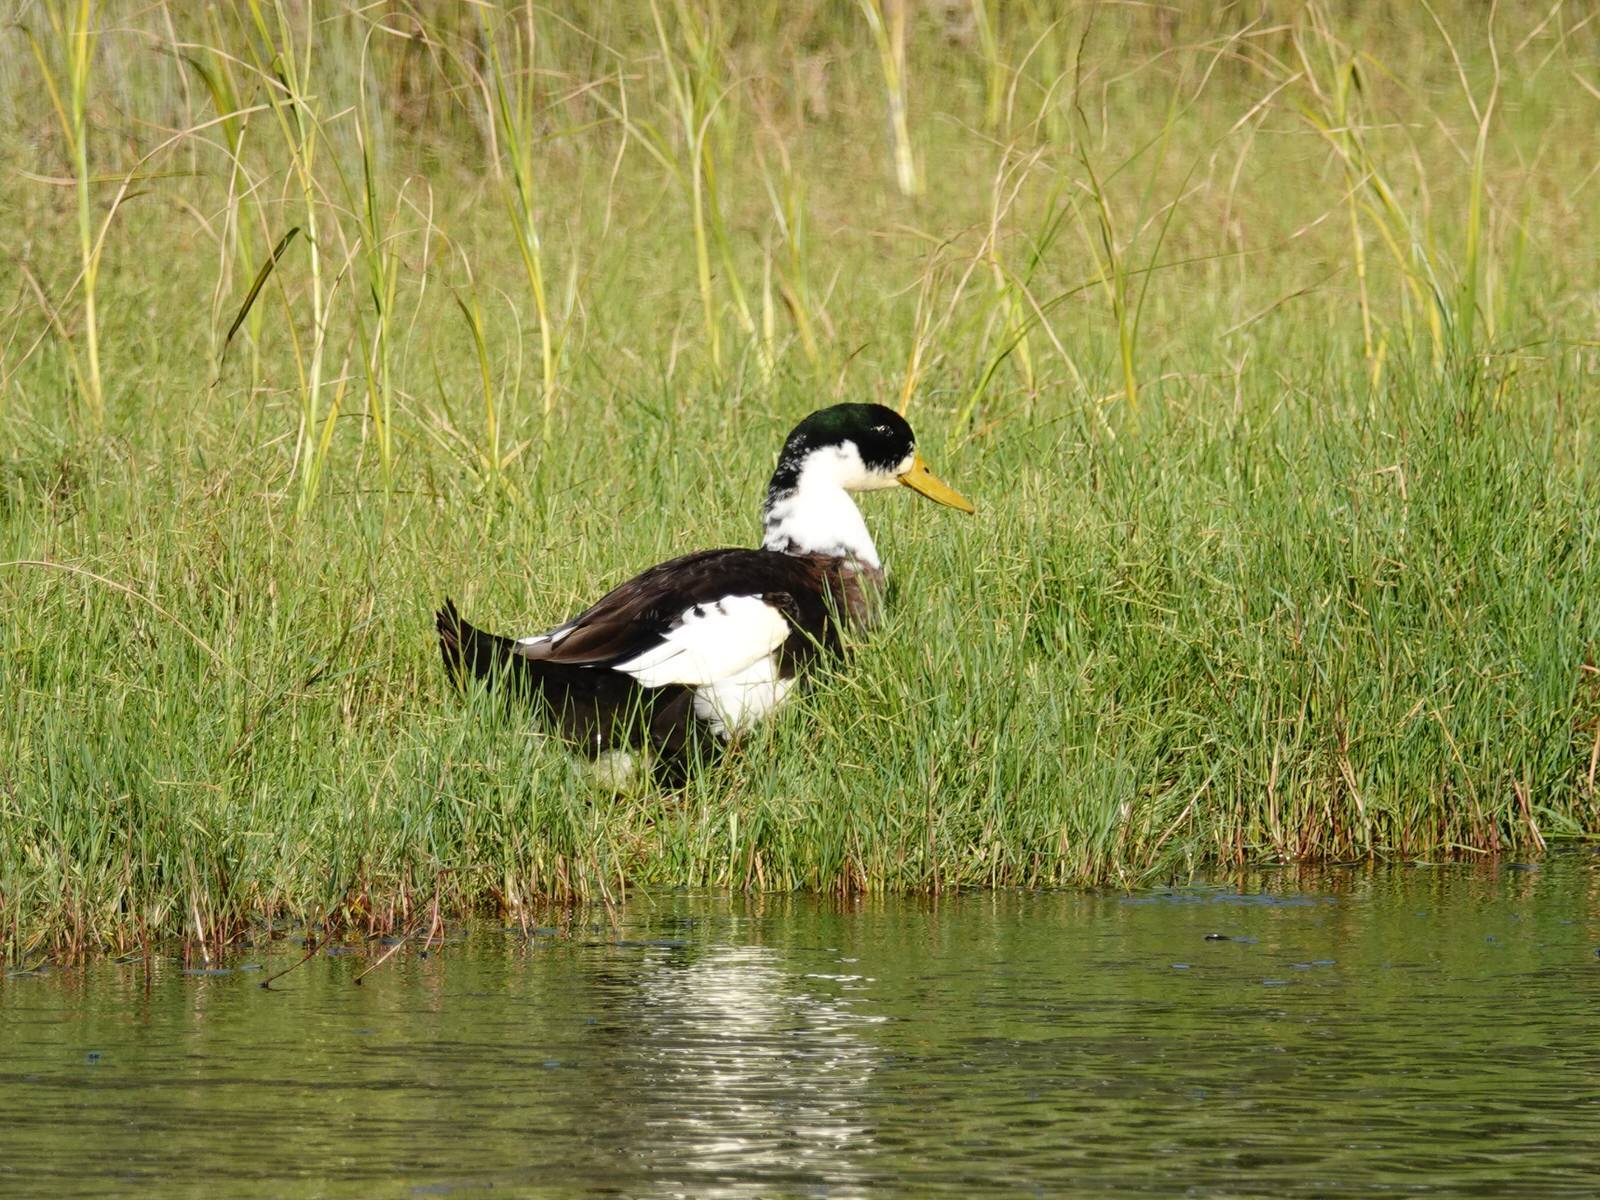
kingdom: Animalia
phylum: Chordata
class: Aves
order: Anseriformes
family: Anatidae
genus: Anas
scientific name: Anas platyrhynchos
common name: Mallard
